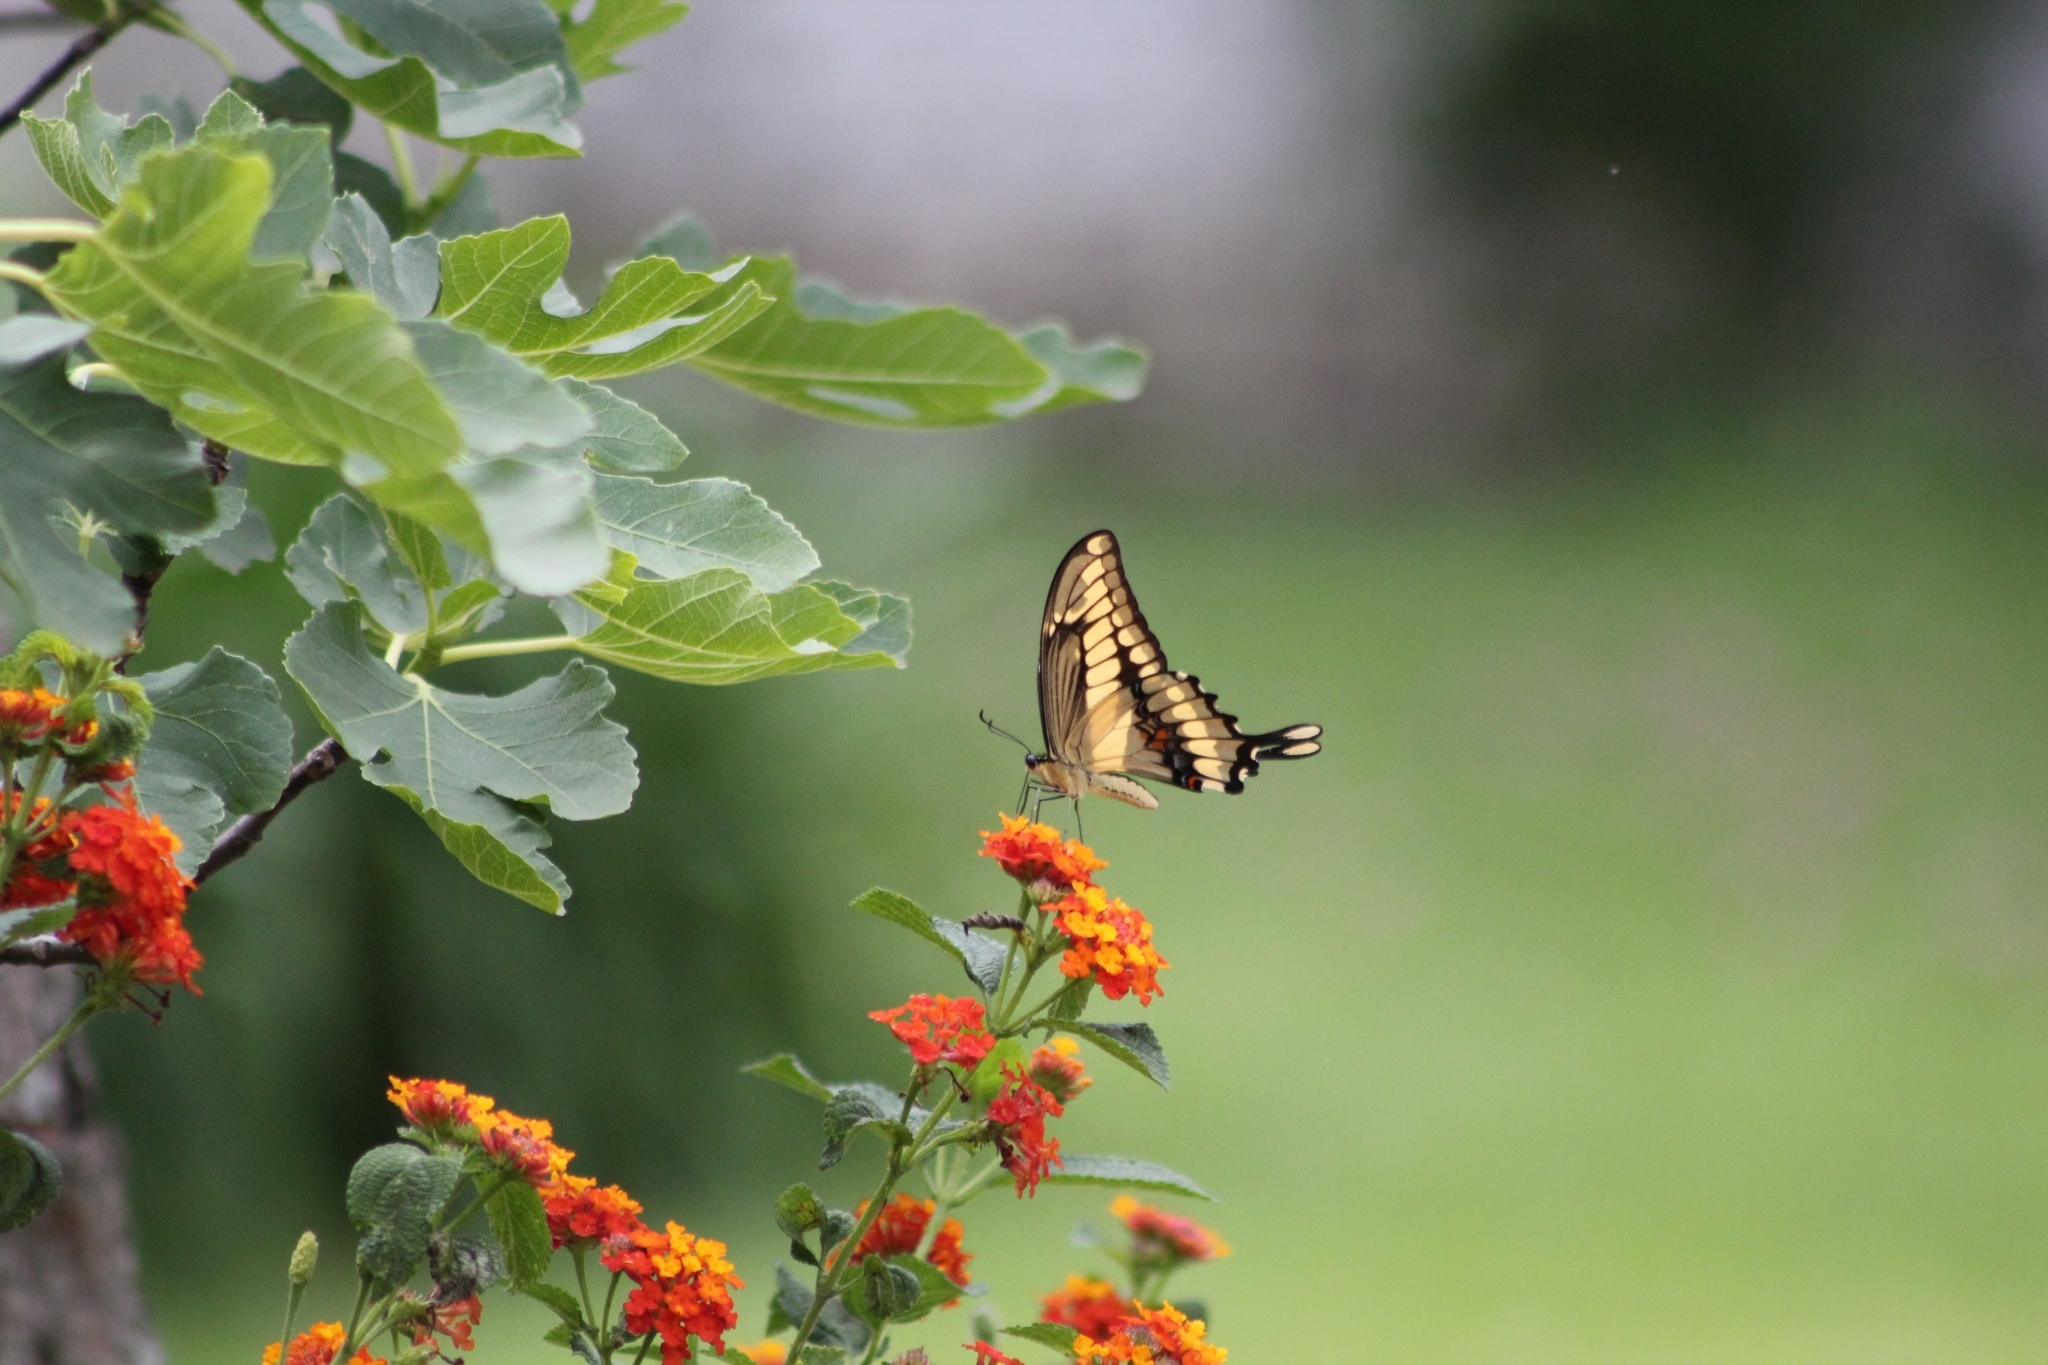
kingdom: Animalia
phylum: Arthropoda
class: Insecta
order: Lepidoptera
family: Papilionidae
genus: Papilio
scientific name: Papilio thoas
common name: King swallowtail
